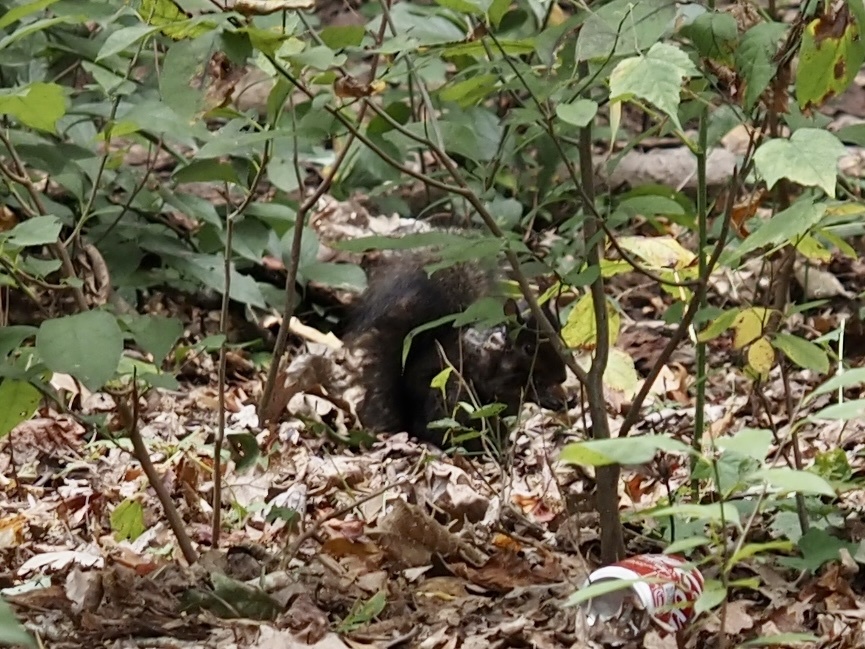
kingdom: Animalia
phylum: Chordata
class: Mammalia
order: Rodentia
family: Sciuridae
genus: Sciurus
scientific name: Sciurus carolinensis
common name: Eastern gray squirrel
